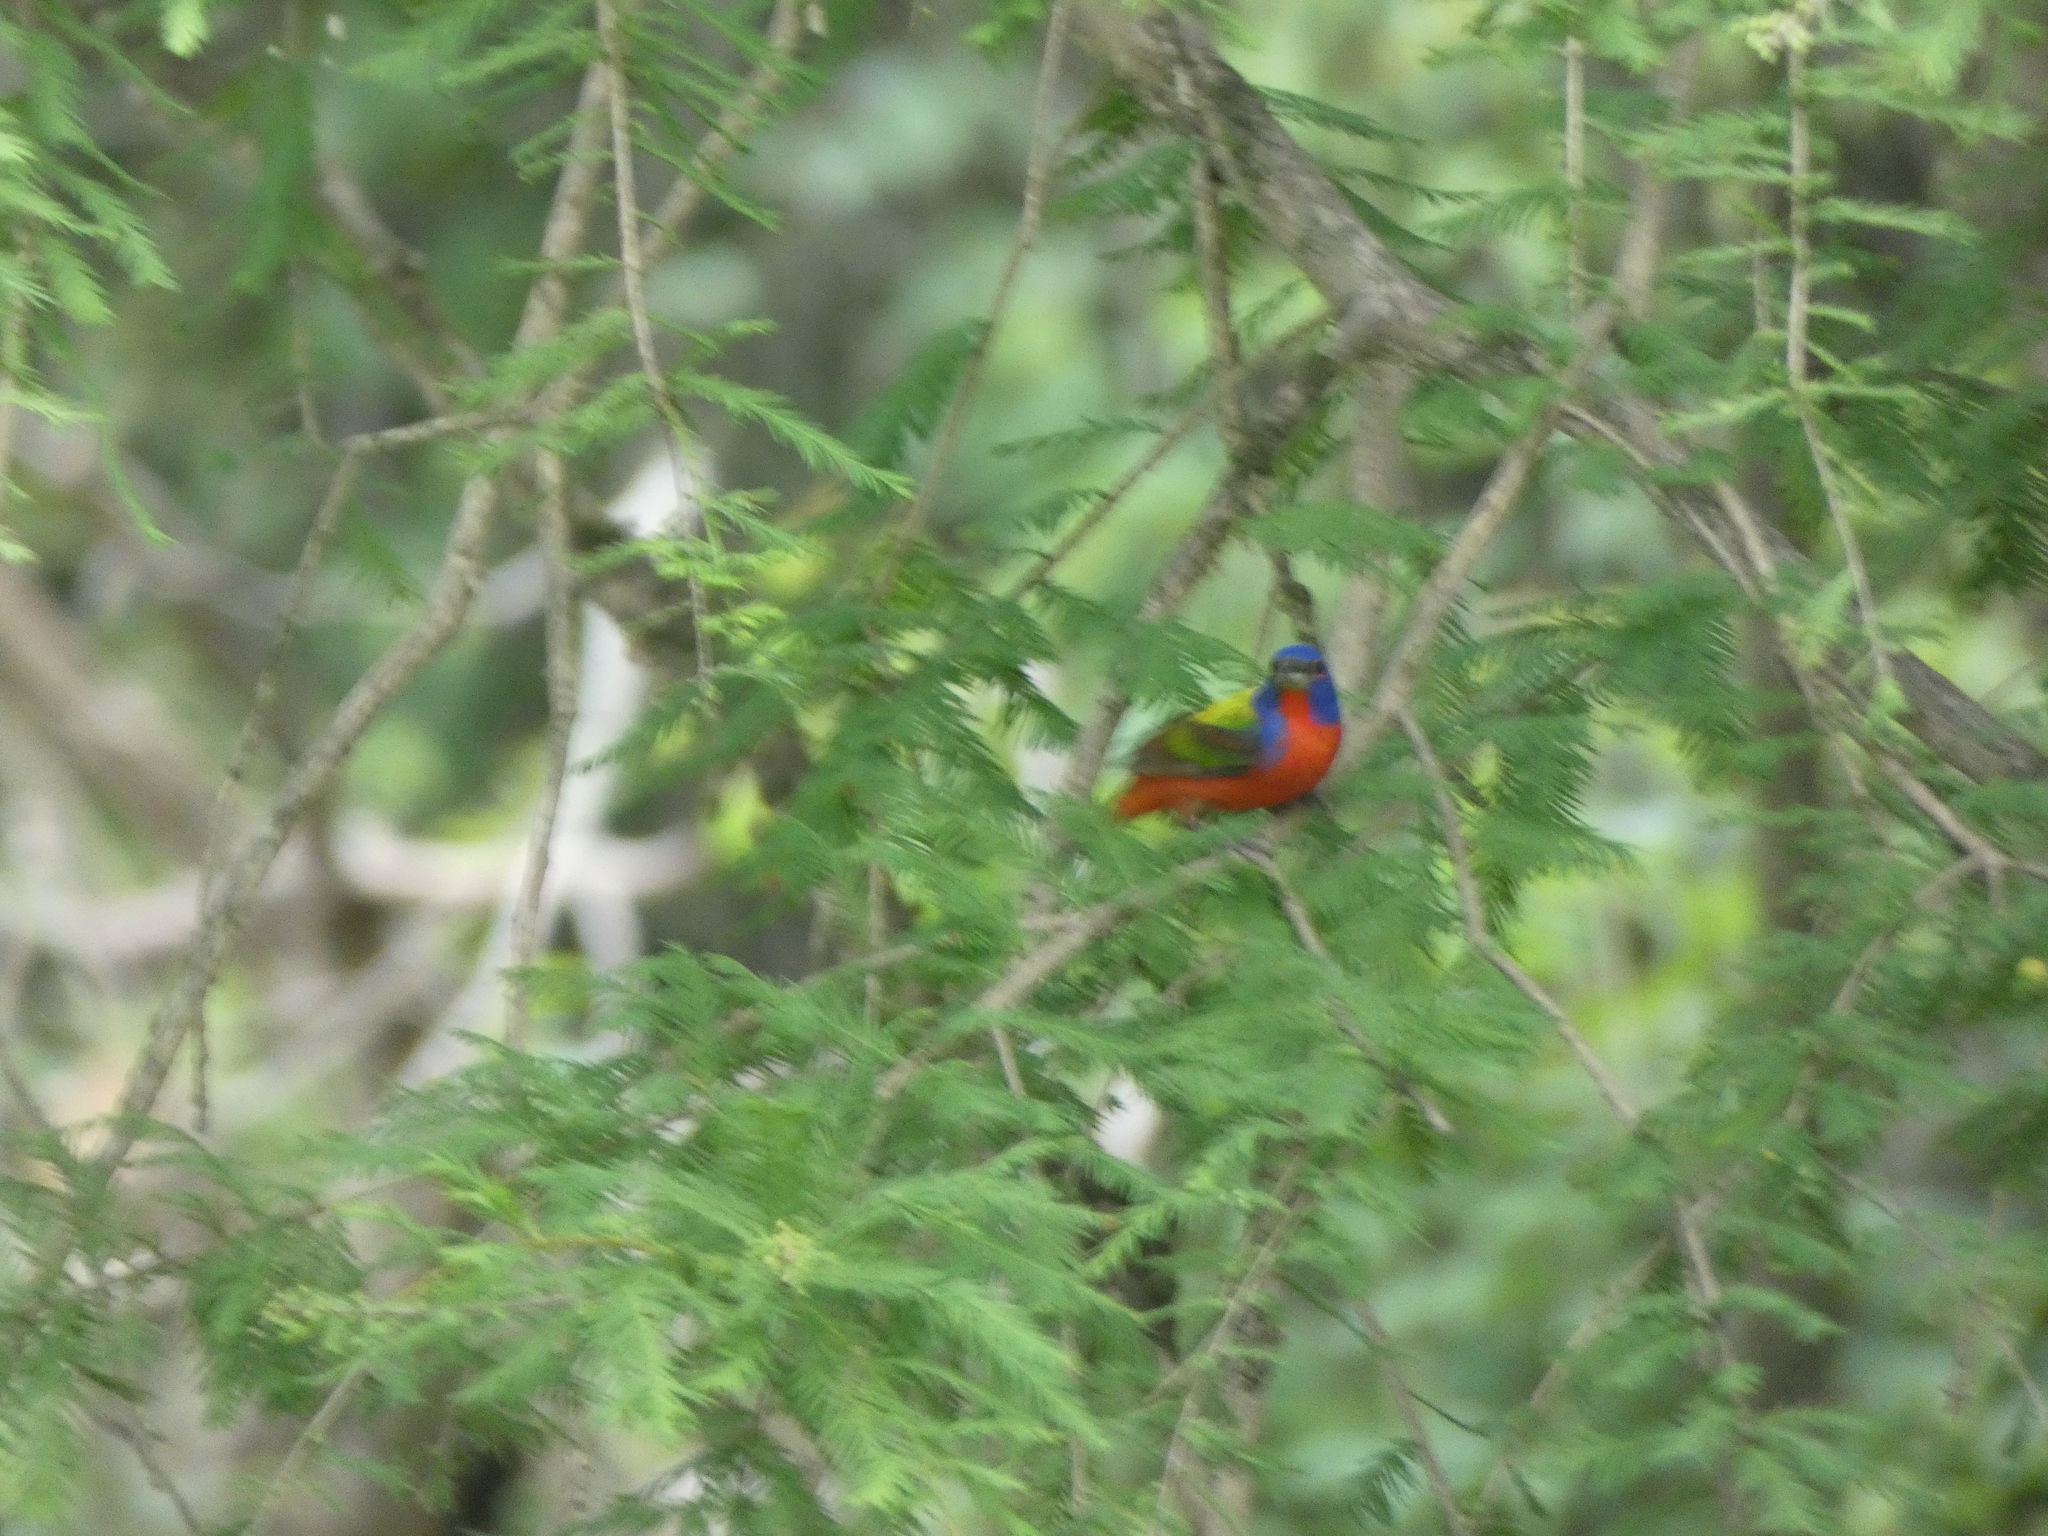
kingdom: Animalia
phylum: Chordata
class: Aves
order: Passeriformes
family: Cardinalidae
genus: Passerina
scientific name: Passerina ciris
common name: Painted bunting
